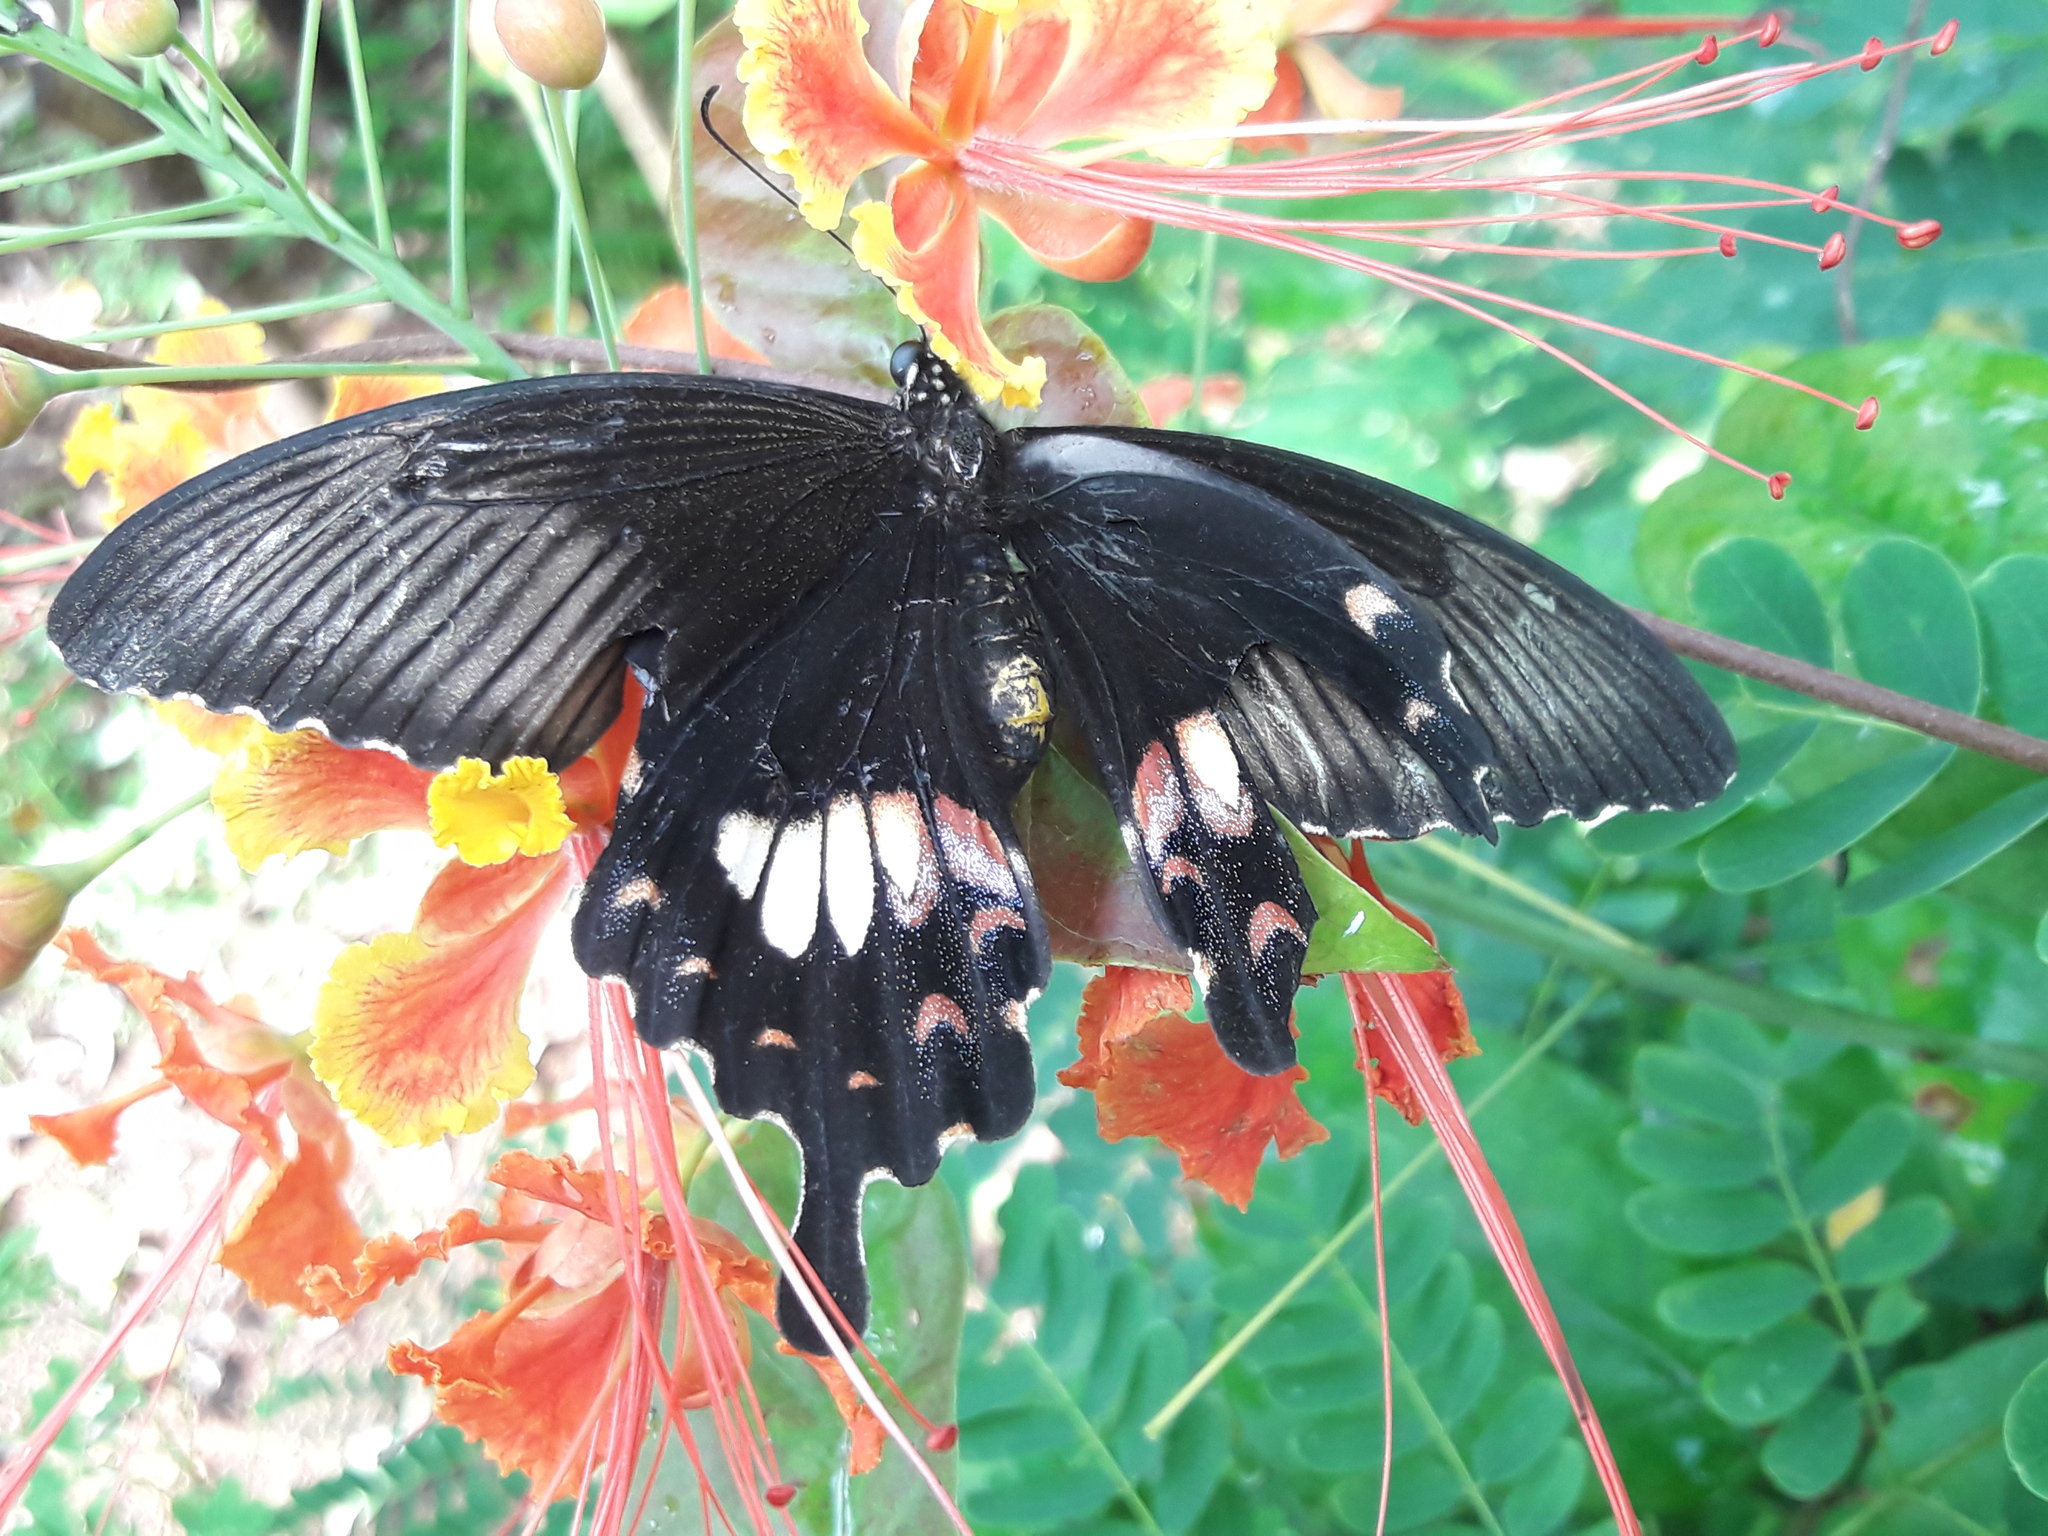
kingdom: Animalia
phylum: Arthropoda
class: Insecta
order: Lepidoptera
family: Papilionidae
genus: Papilio
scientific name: Papilio polytes
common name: Common mormon
